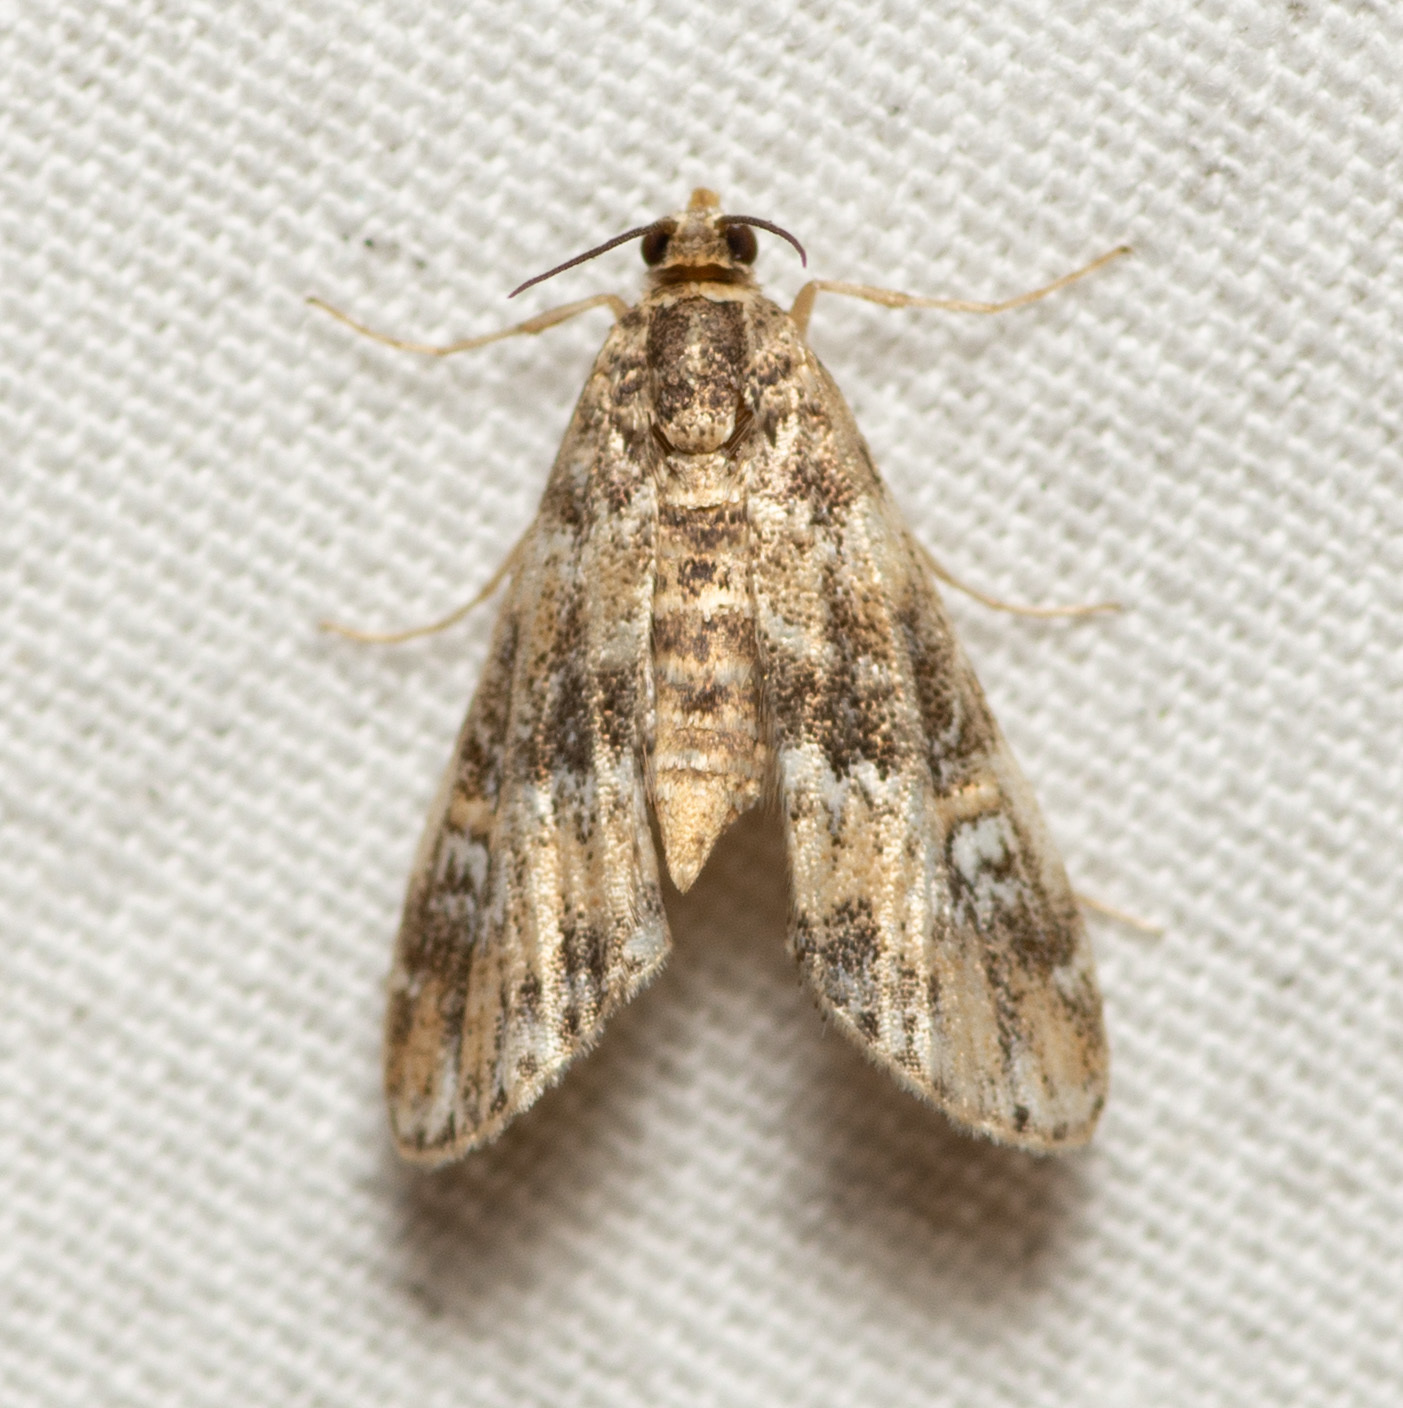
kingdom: Animalia
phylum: Arthropoda
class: Insecta
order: Lepidoptera
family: Crambidae
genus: Elophila
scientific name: Elophila obliteralis
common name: Waterlily leafcutter moth
